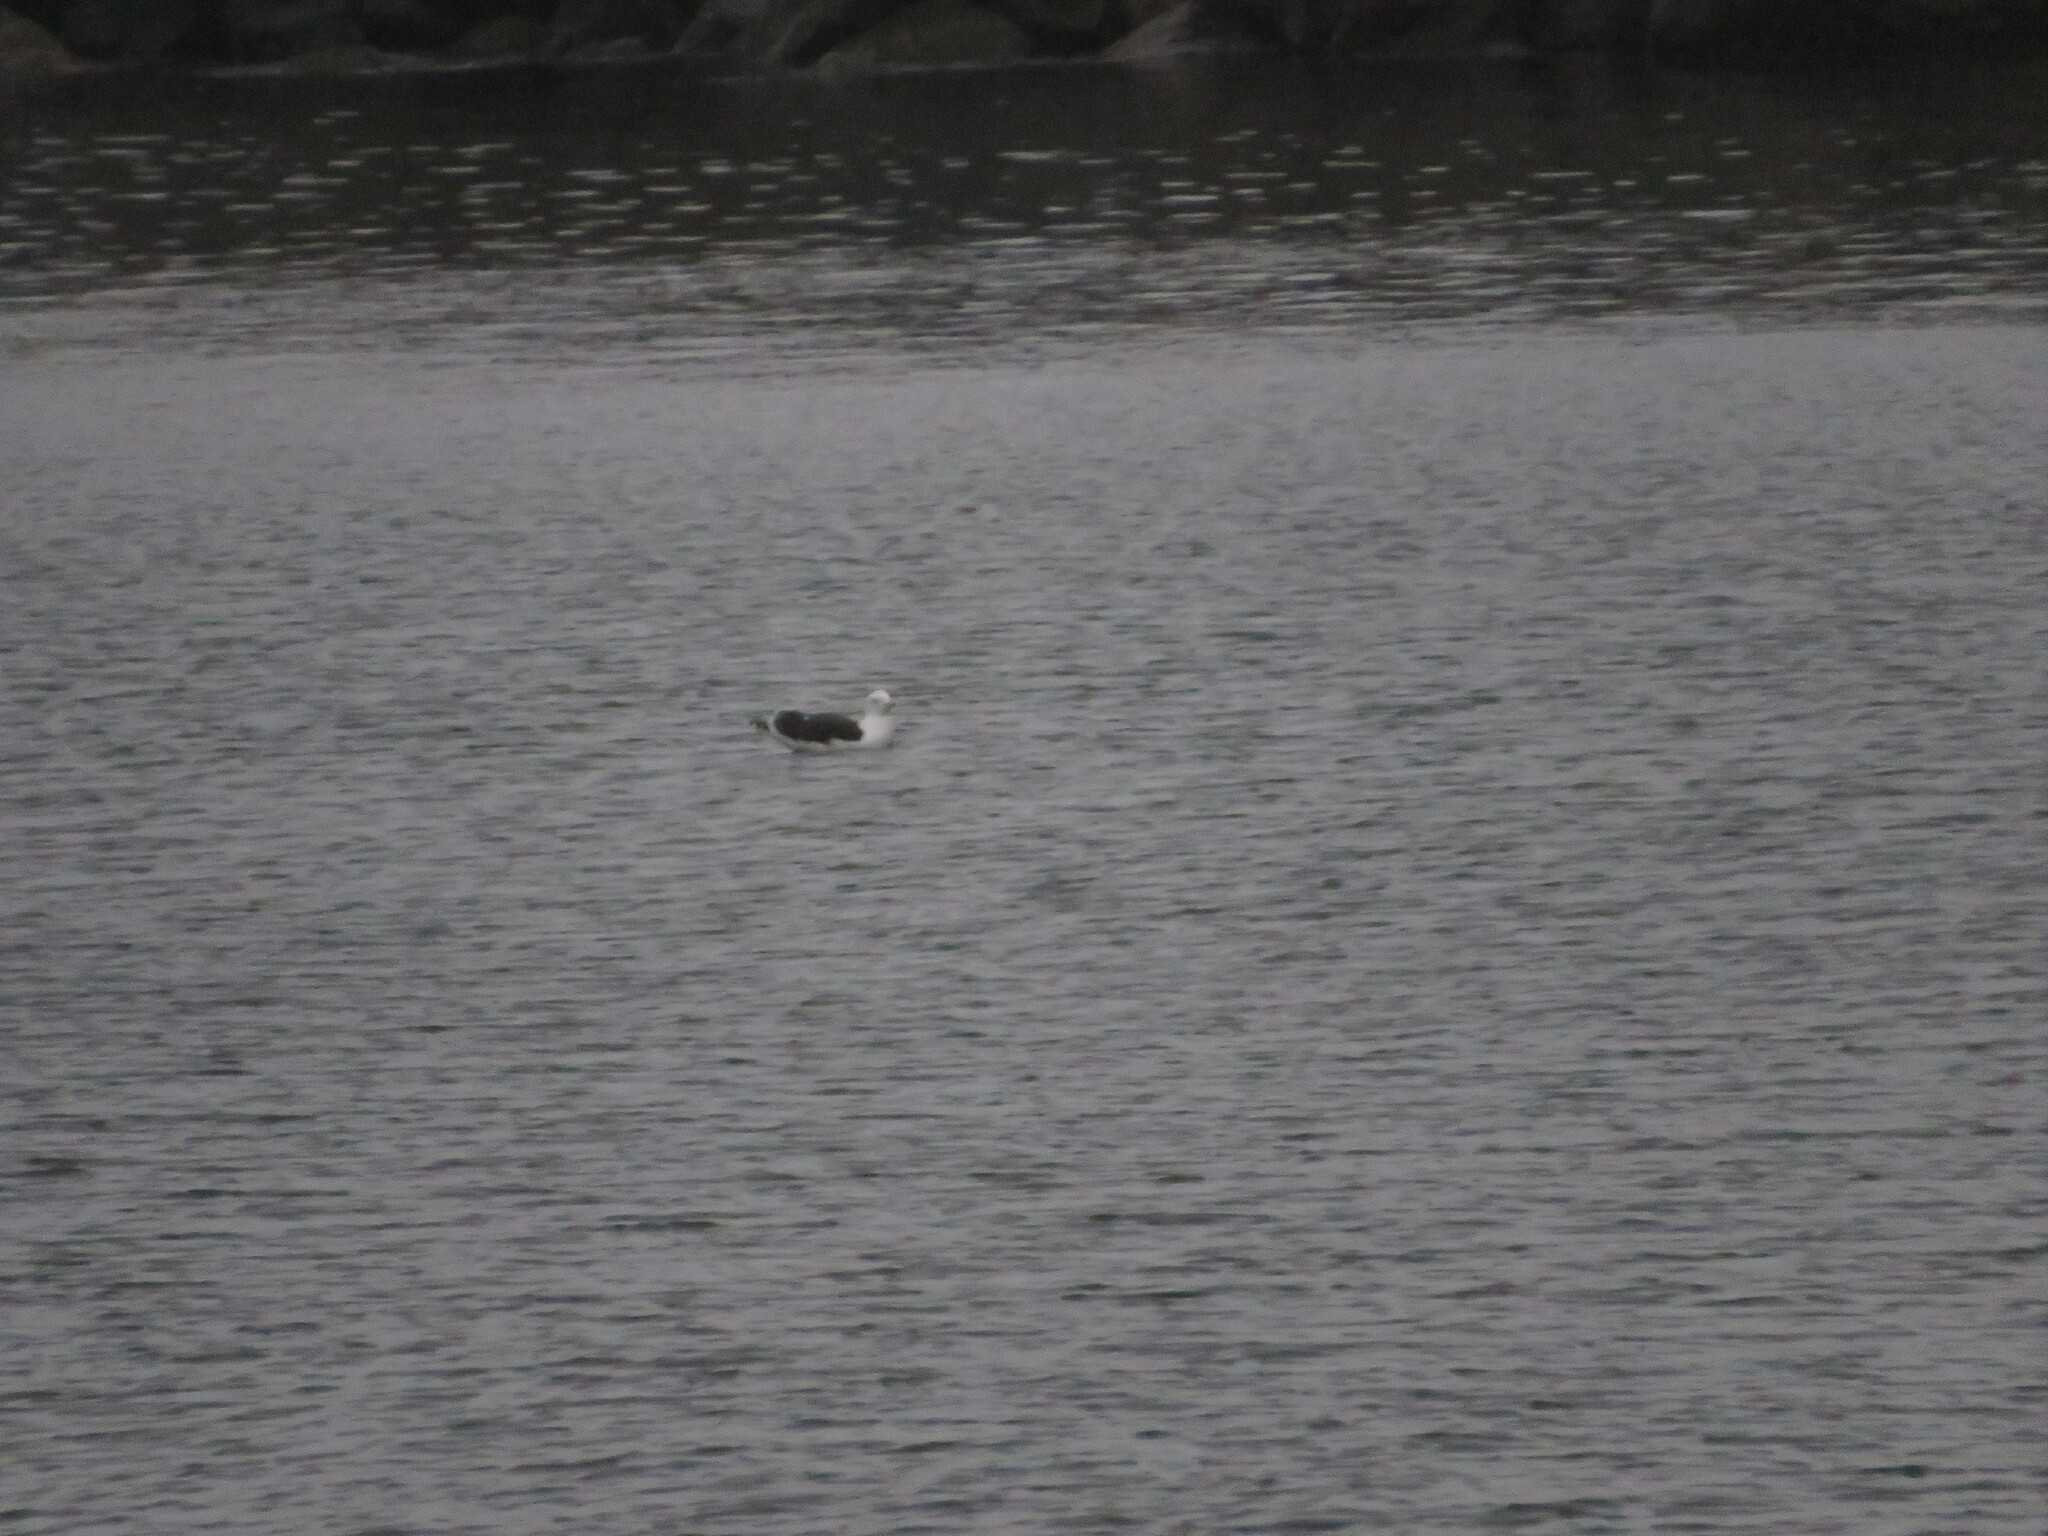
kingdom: Animalia
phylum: Chordata
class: Aves
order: Charadriiformes
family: Laridae
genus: Larus
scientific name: Larus marinus
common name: Great black-backed gull
